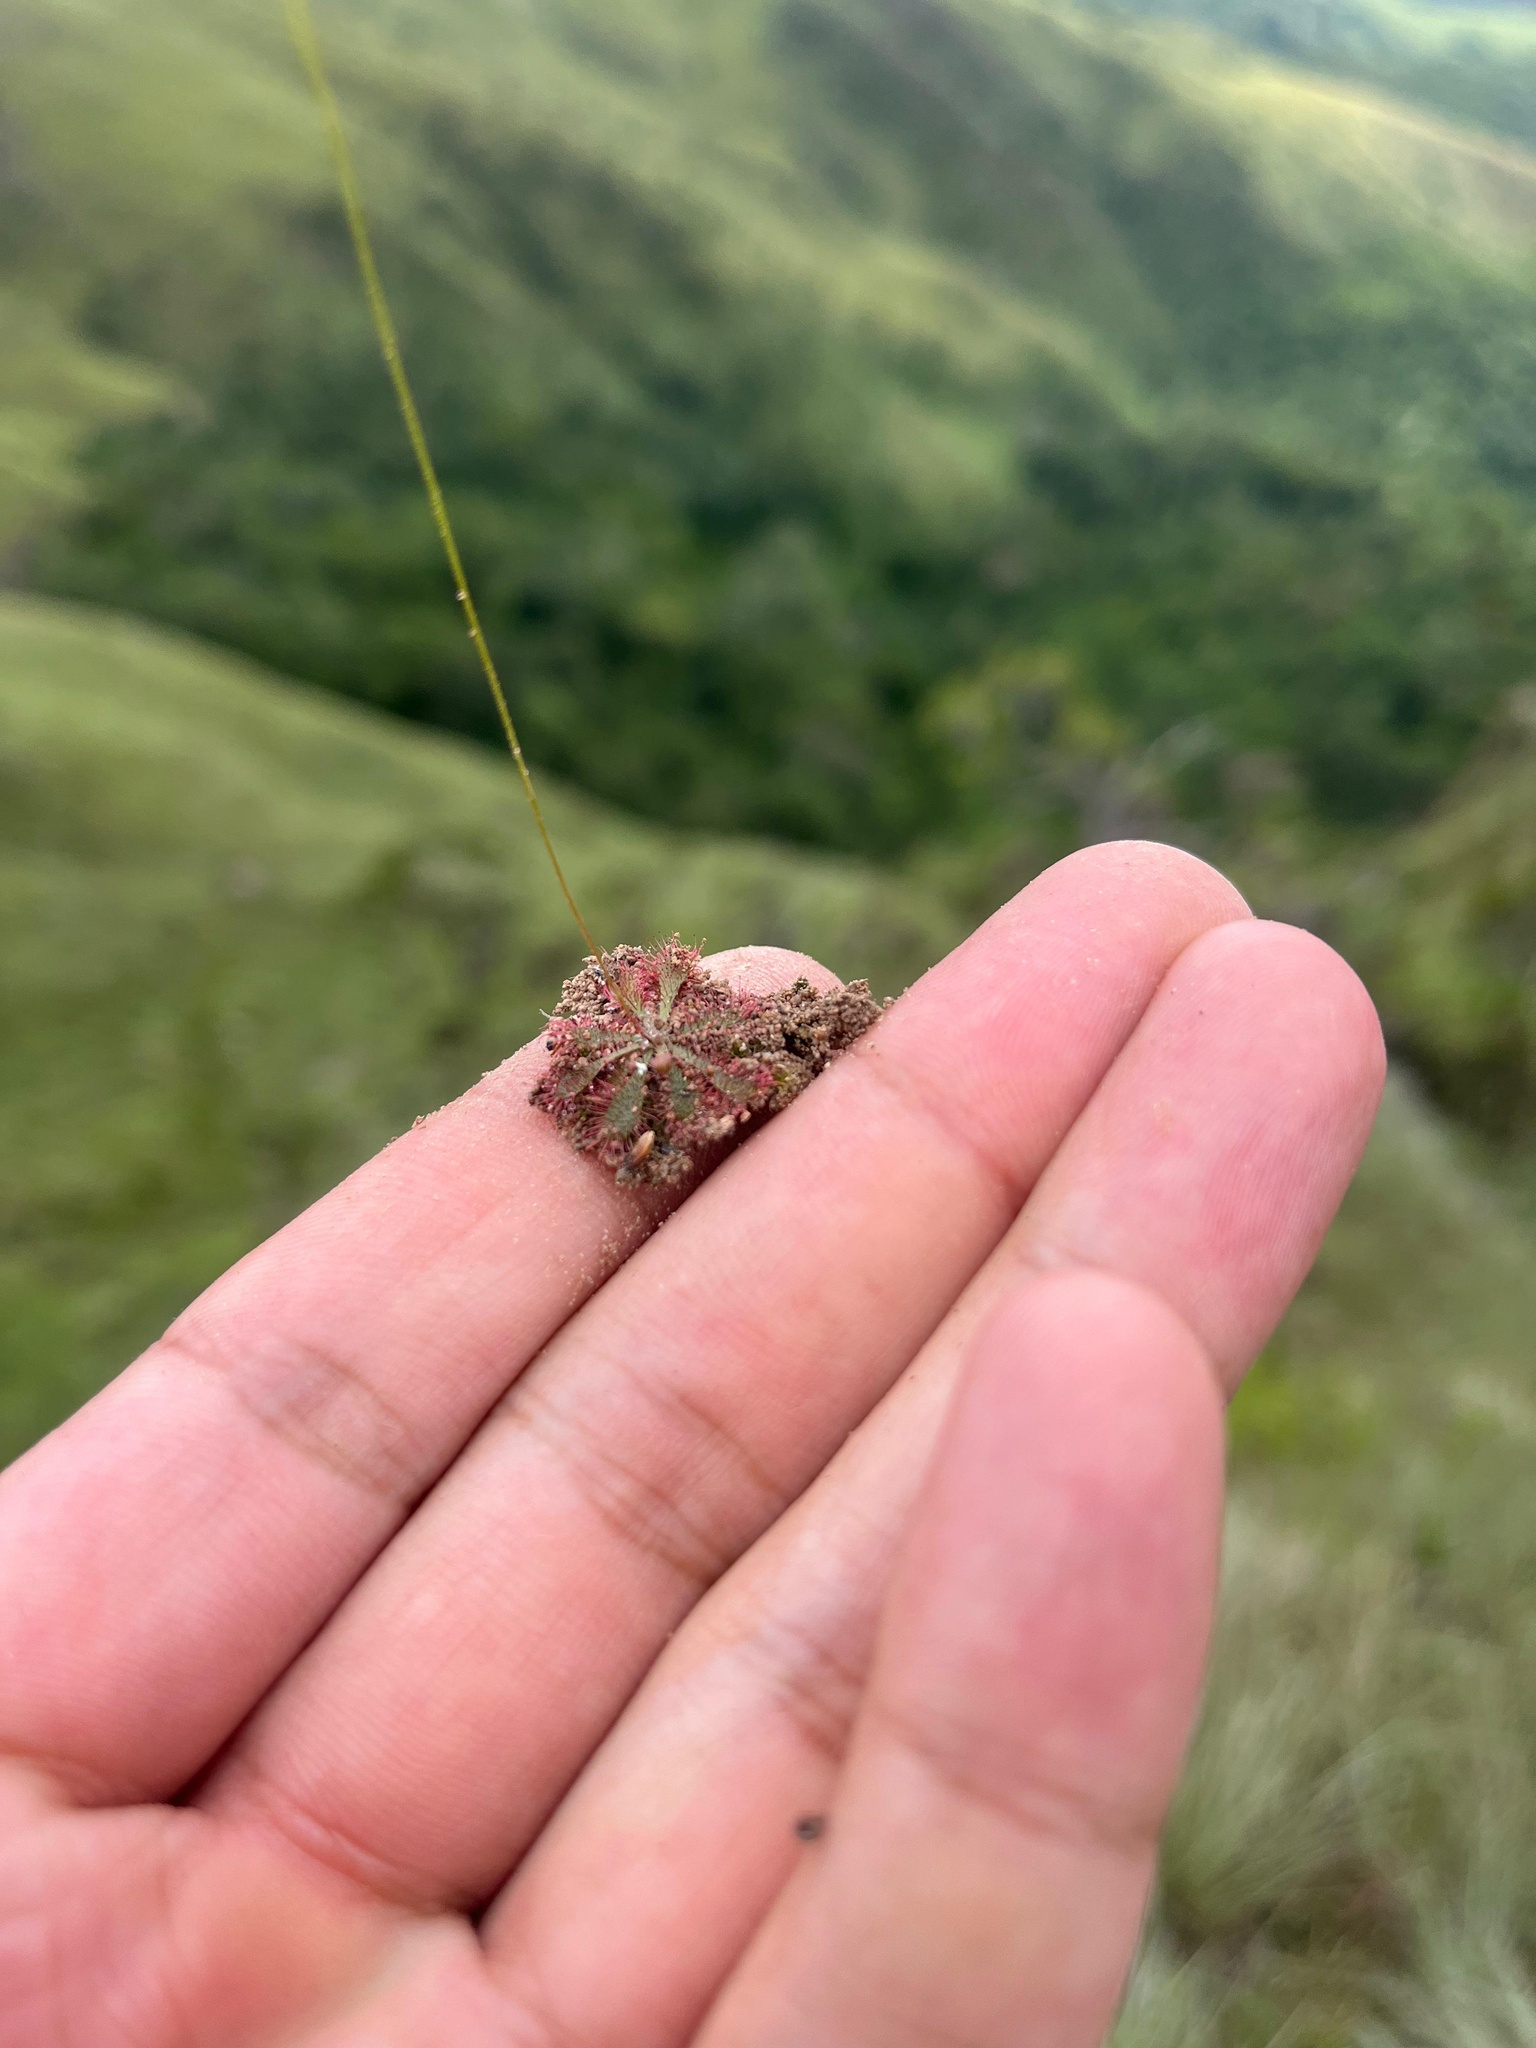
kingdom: Plantae
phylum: Tracheophyta
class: Magnoliopsida
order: Caryophyllales
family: Droseraceae
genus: Drosera
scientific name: Drosera montana
